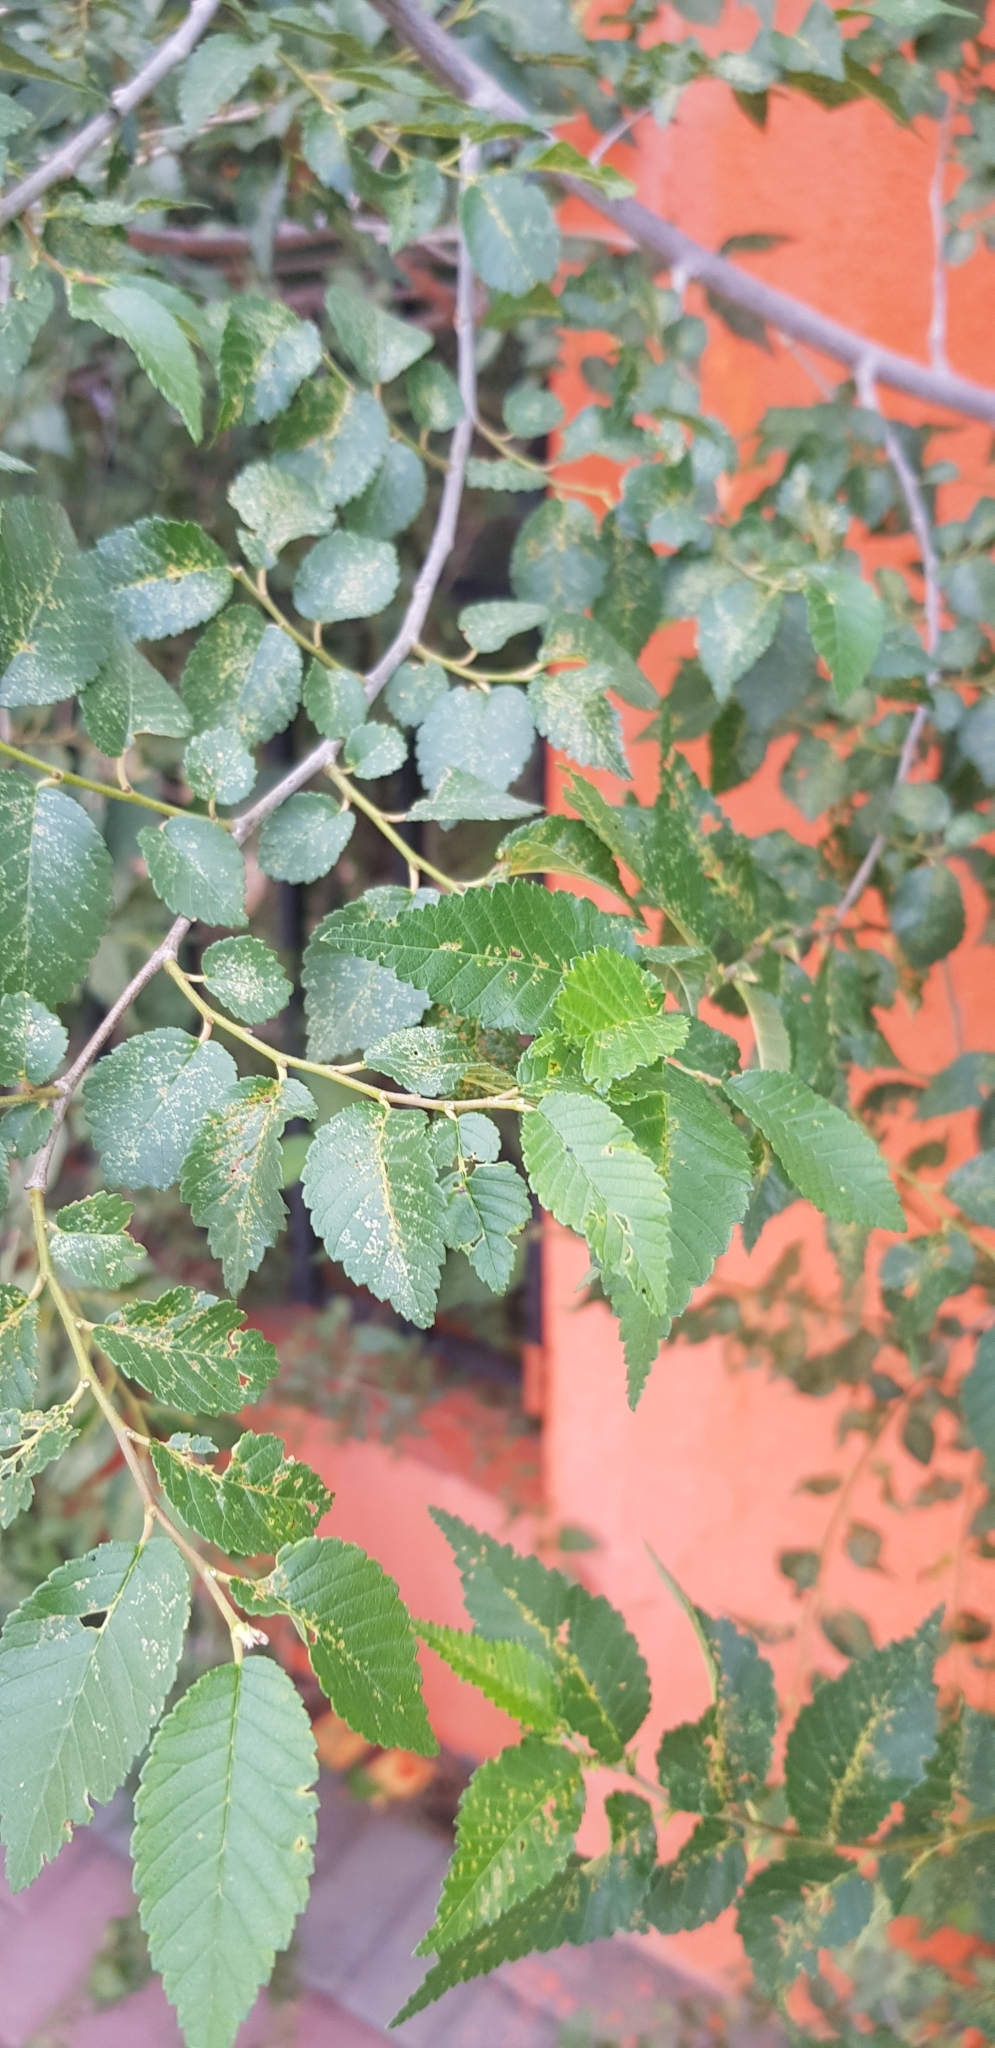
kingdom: Plantae
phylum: Tracheophyta
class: Magnoliopsida
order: Rosales
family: Ulmaceae
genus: Ulmus
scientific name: Ulmus pumila
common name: Siberian elm
